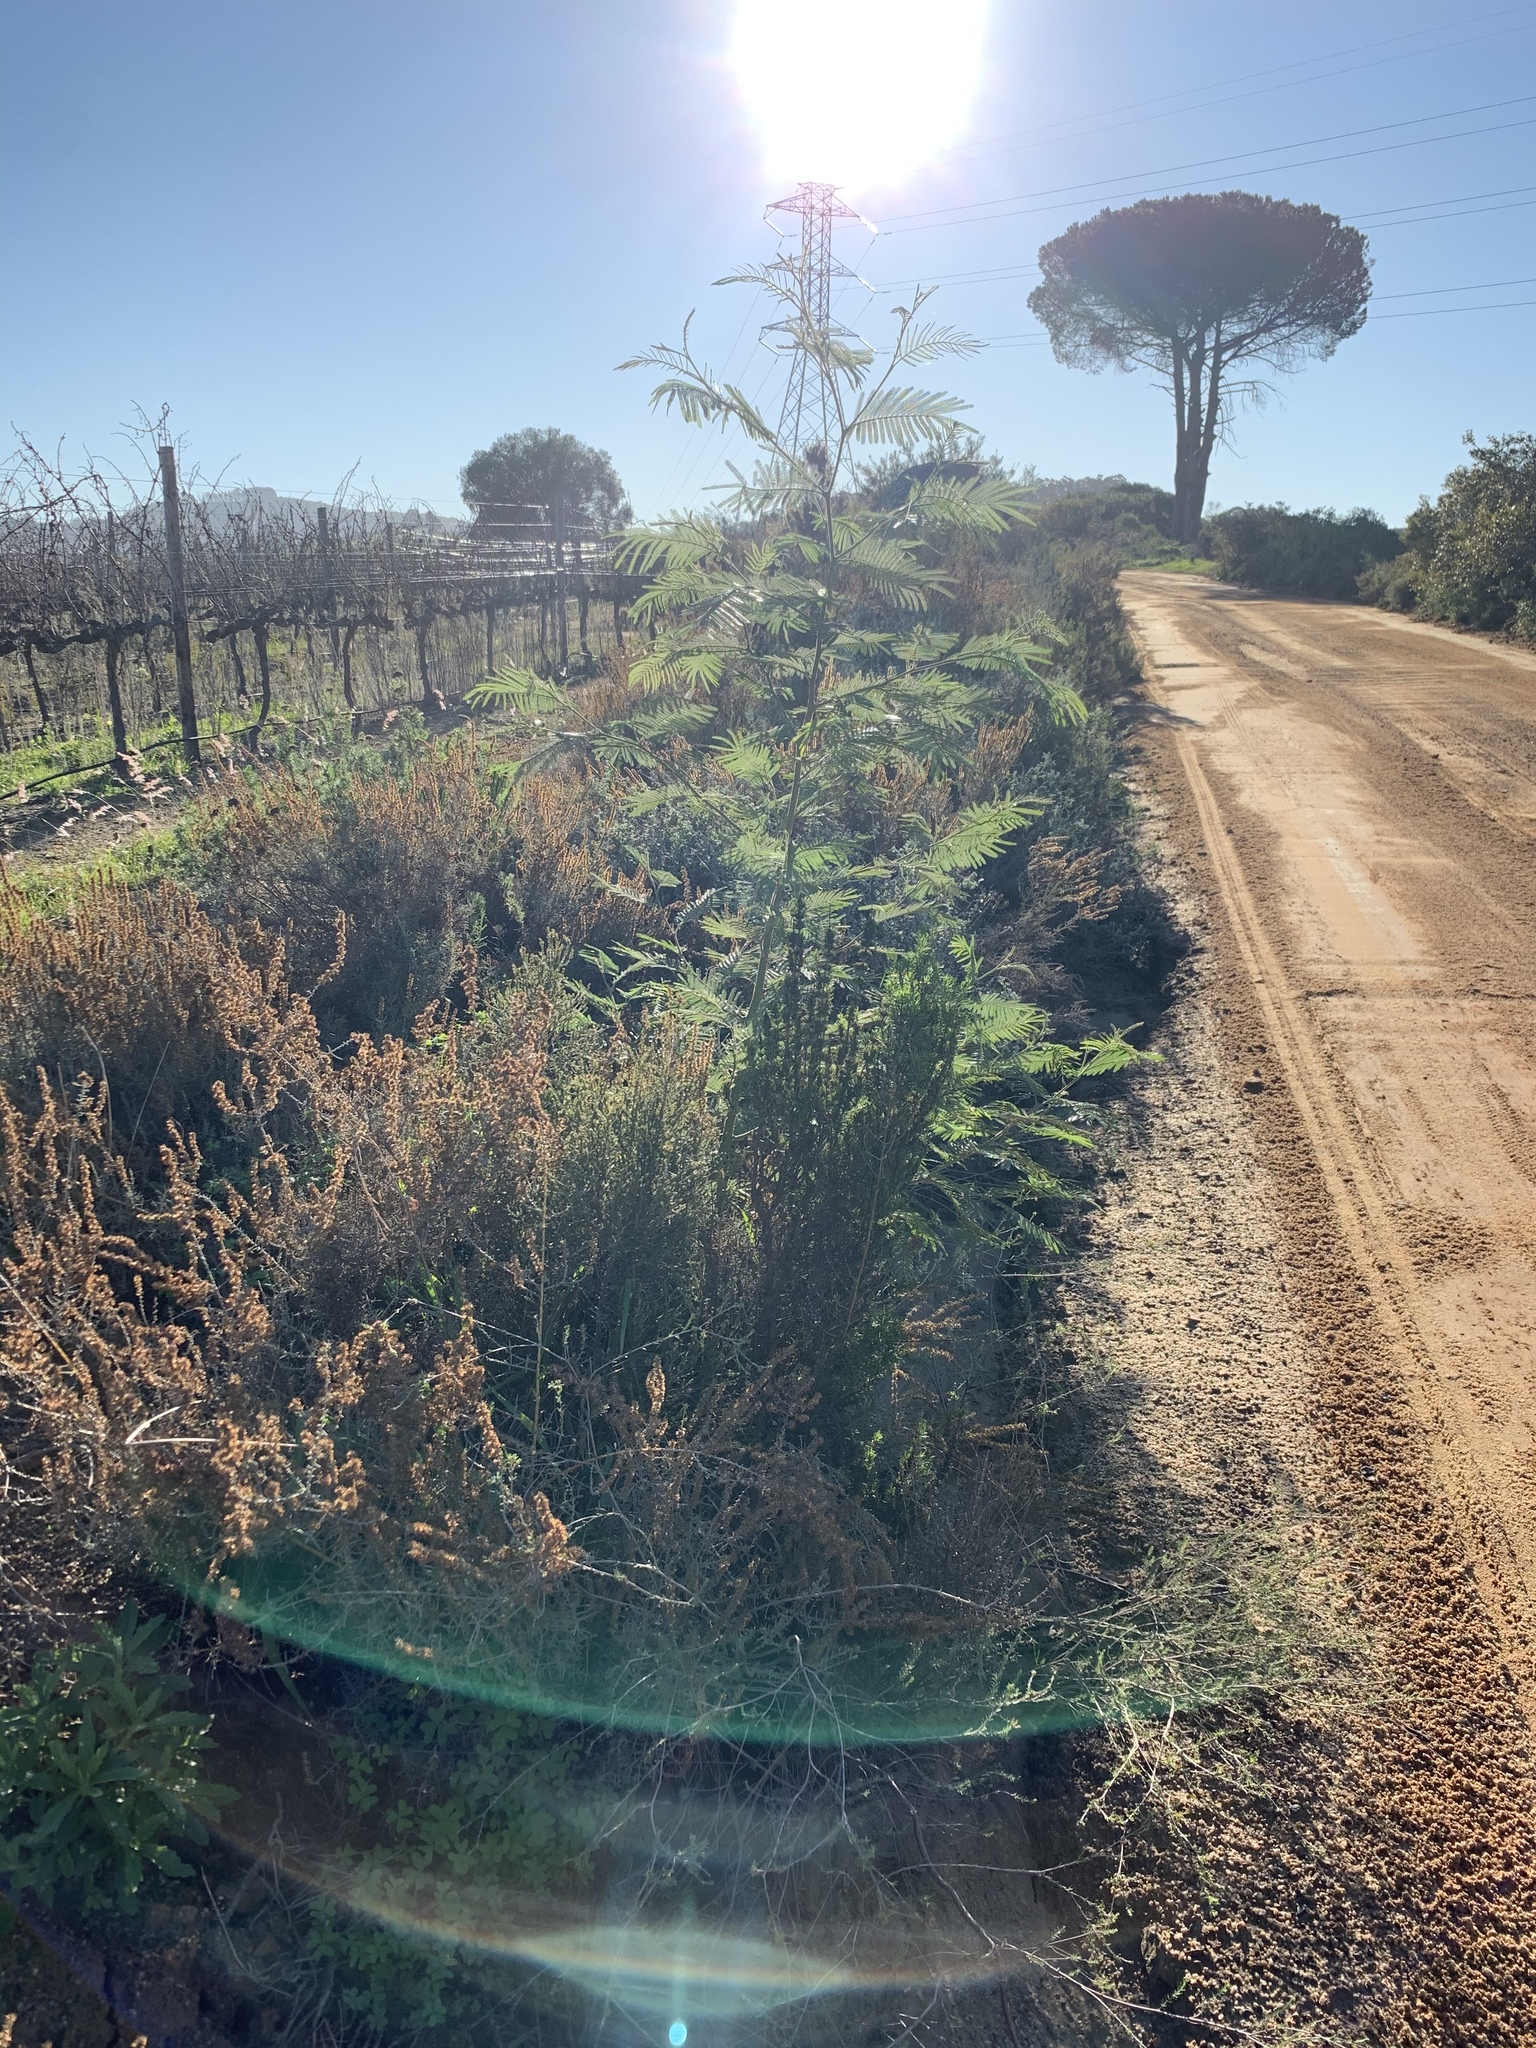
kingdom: Plantae
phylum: Tracheophyta
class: Magnoliopsida
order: Fabales
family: Fabaceae
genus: Acacia
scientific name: Acacia mearnsii
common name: Black wattle
